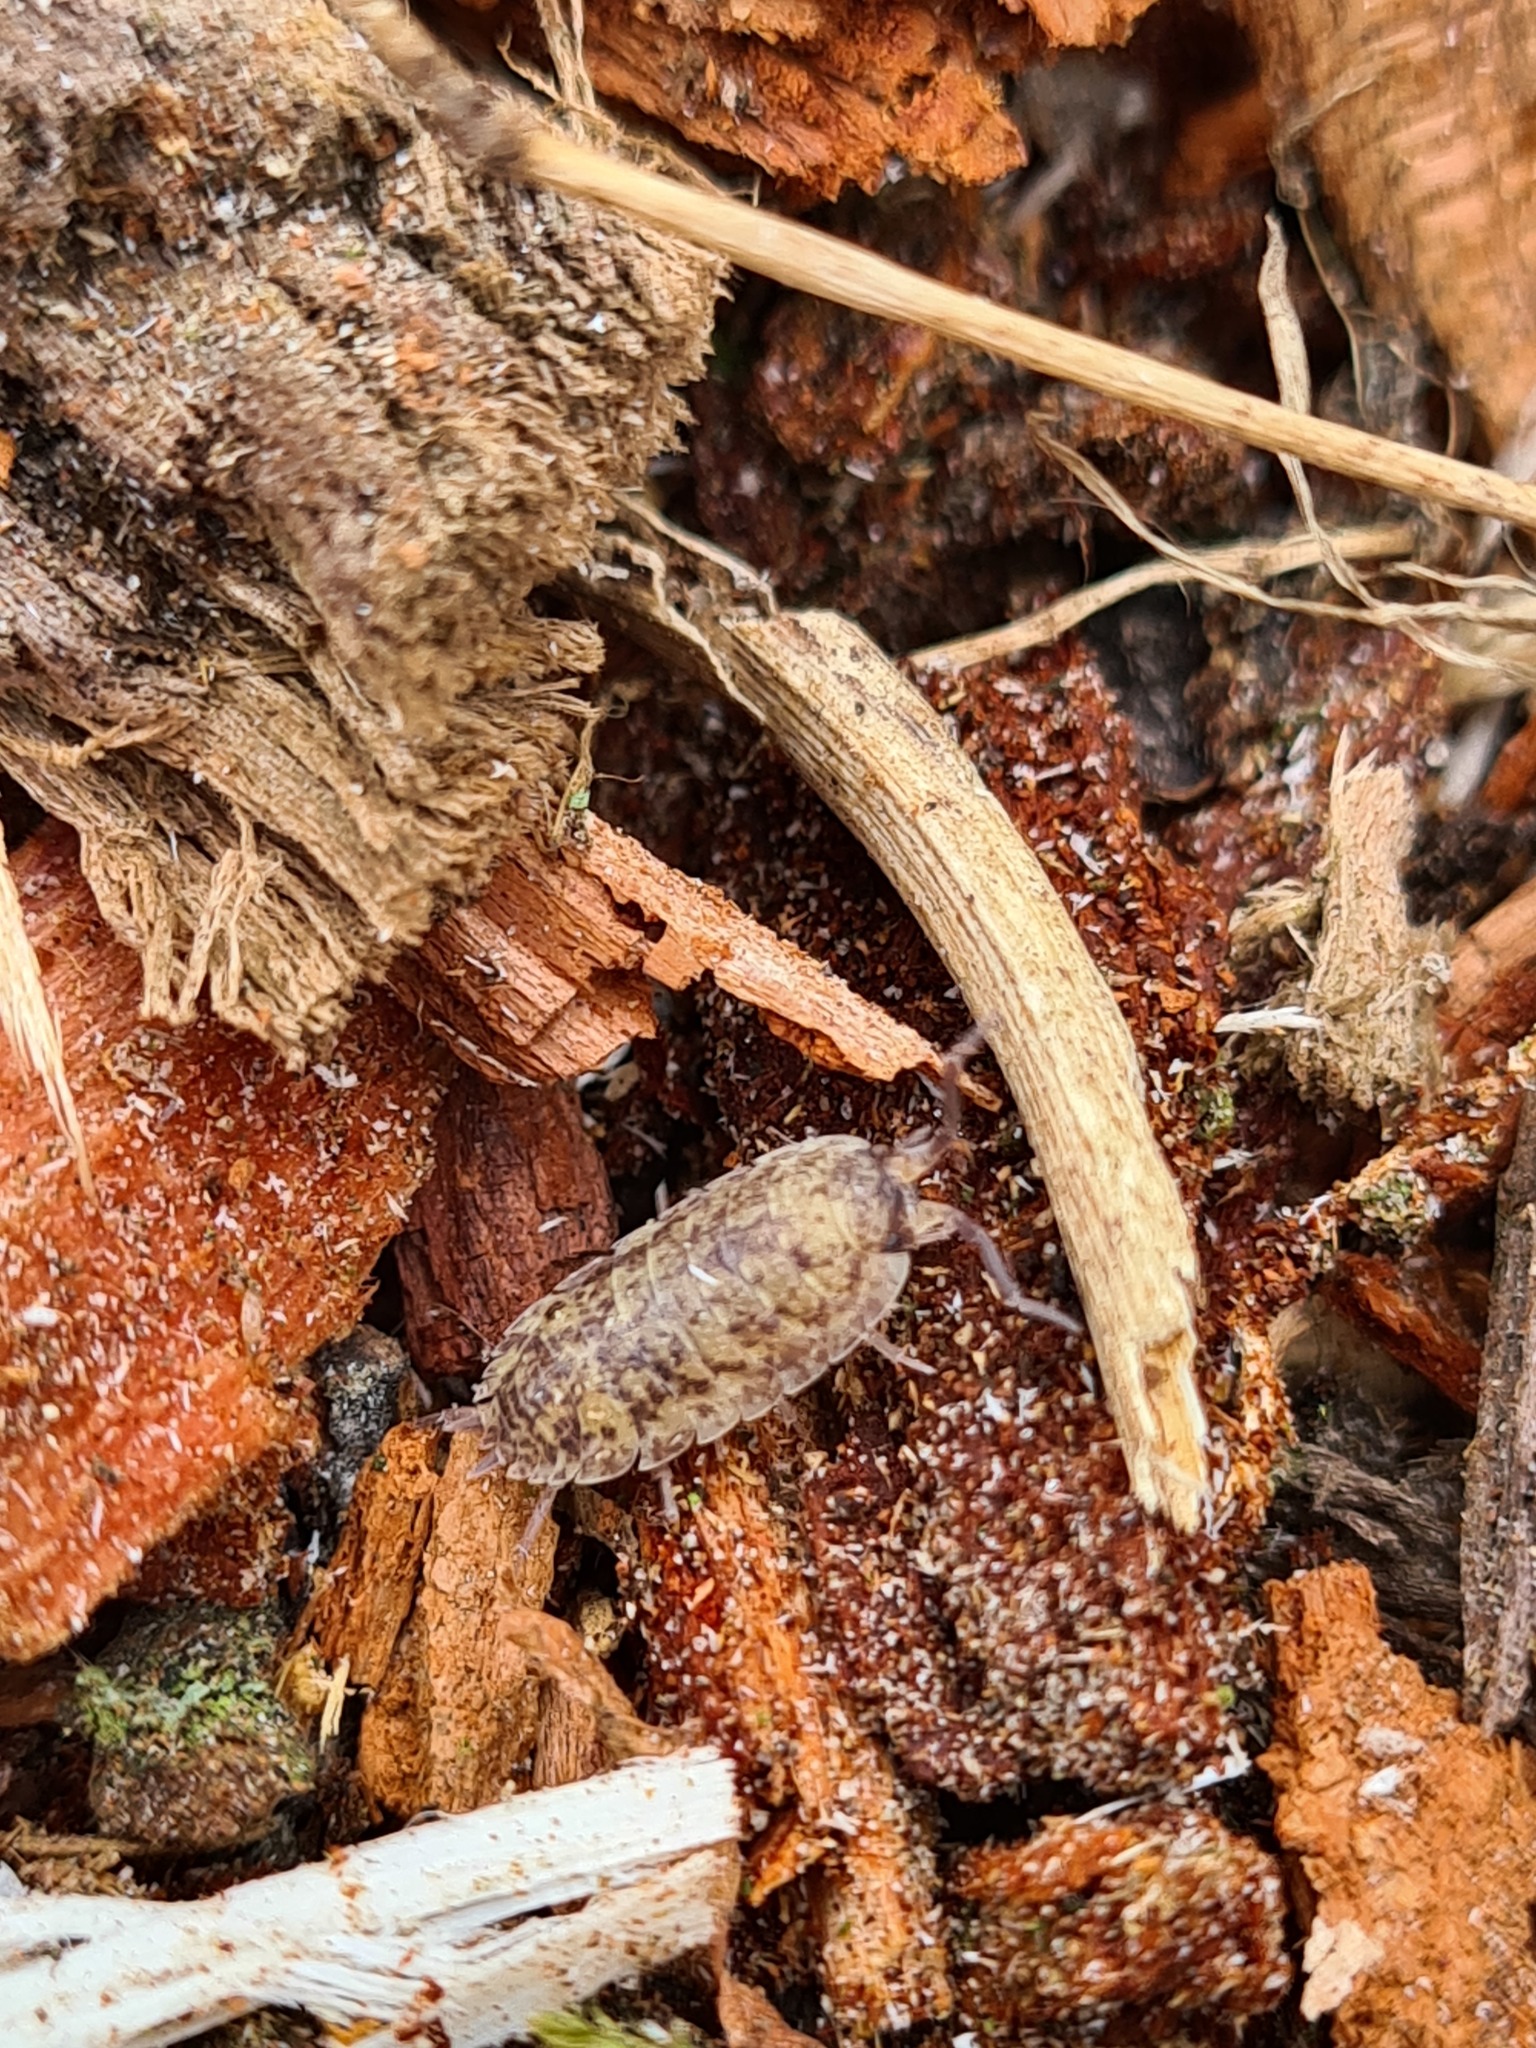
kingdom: Animalia
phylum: Arthropoda
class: Malacostraca
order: Isopoda
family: Porcellionidae
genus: Porcellio
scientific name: Porcellio scaber
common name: Common rough woodlouse
